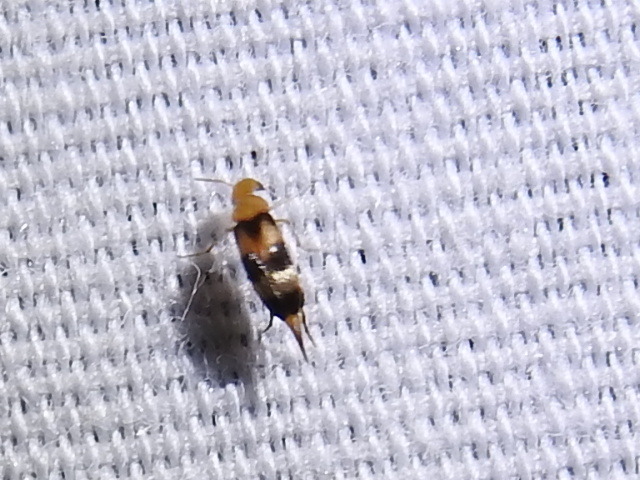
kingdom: Animalia
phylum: Arthropoda
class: Insecta
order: Coleoptera
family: Mordellidae
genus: Mordellistena
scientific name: Mordellistena trifasciata
